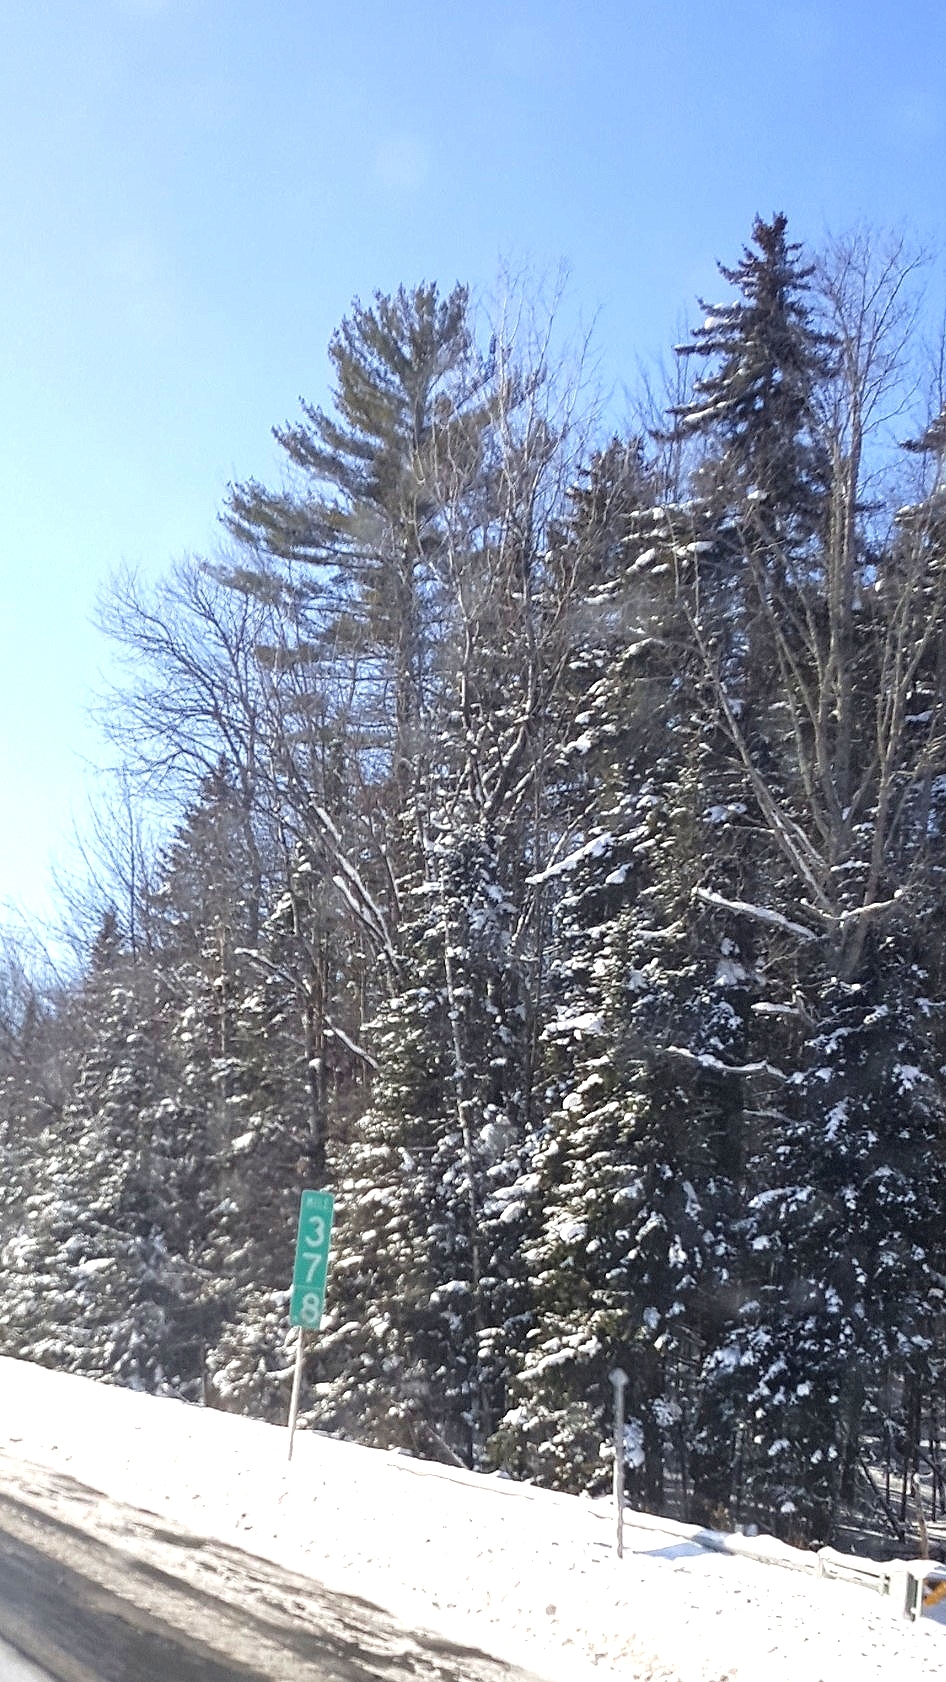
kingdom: Plantae
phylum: Tracheophyta
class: Pinopsida
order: Pinales
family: Pinaceae
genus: Pinus
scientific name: Pinus strobus
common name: Weymouth pine
